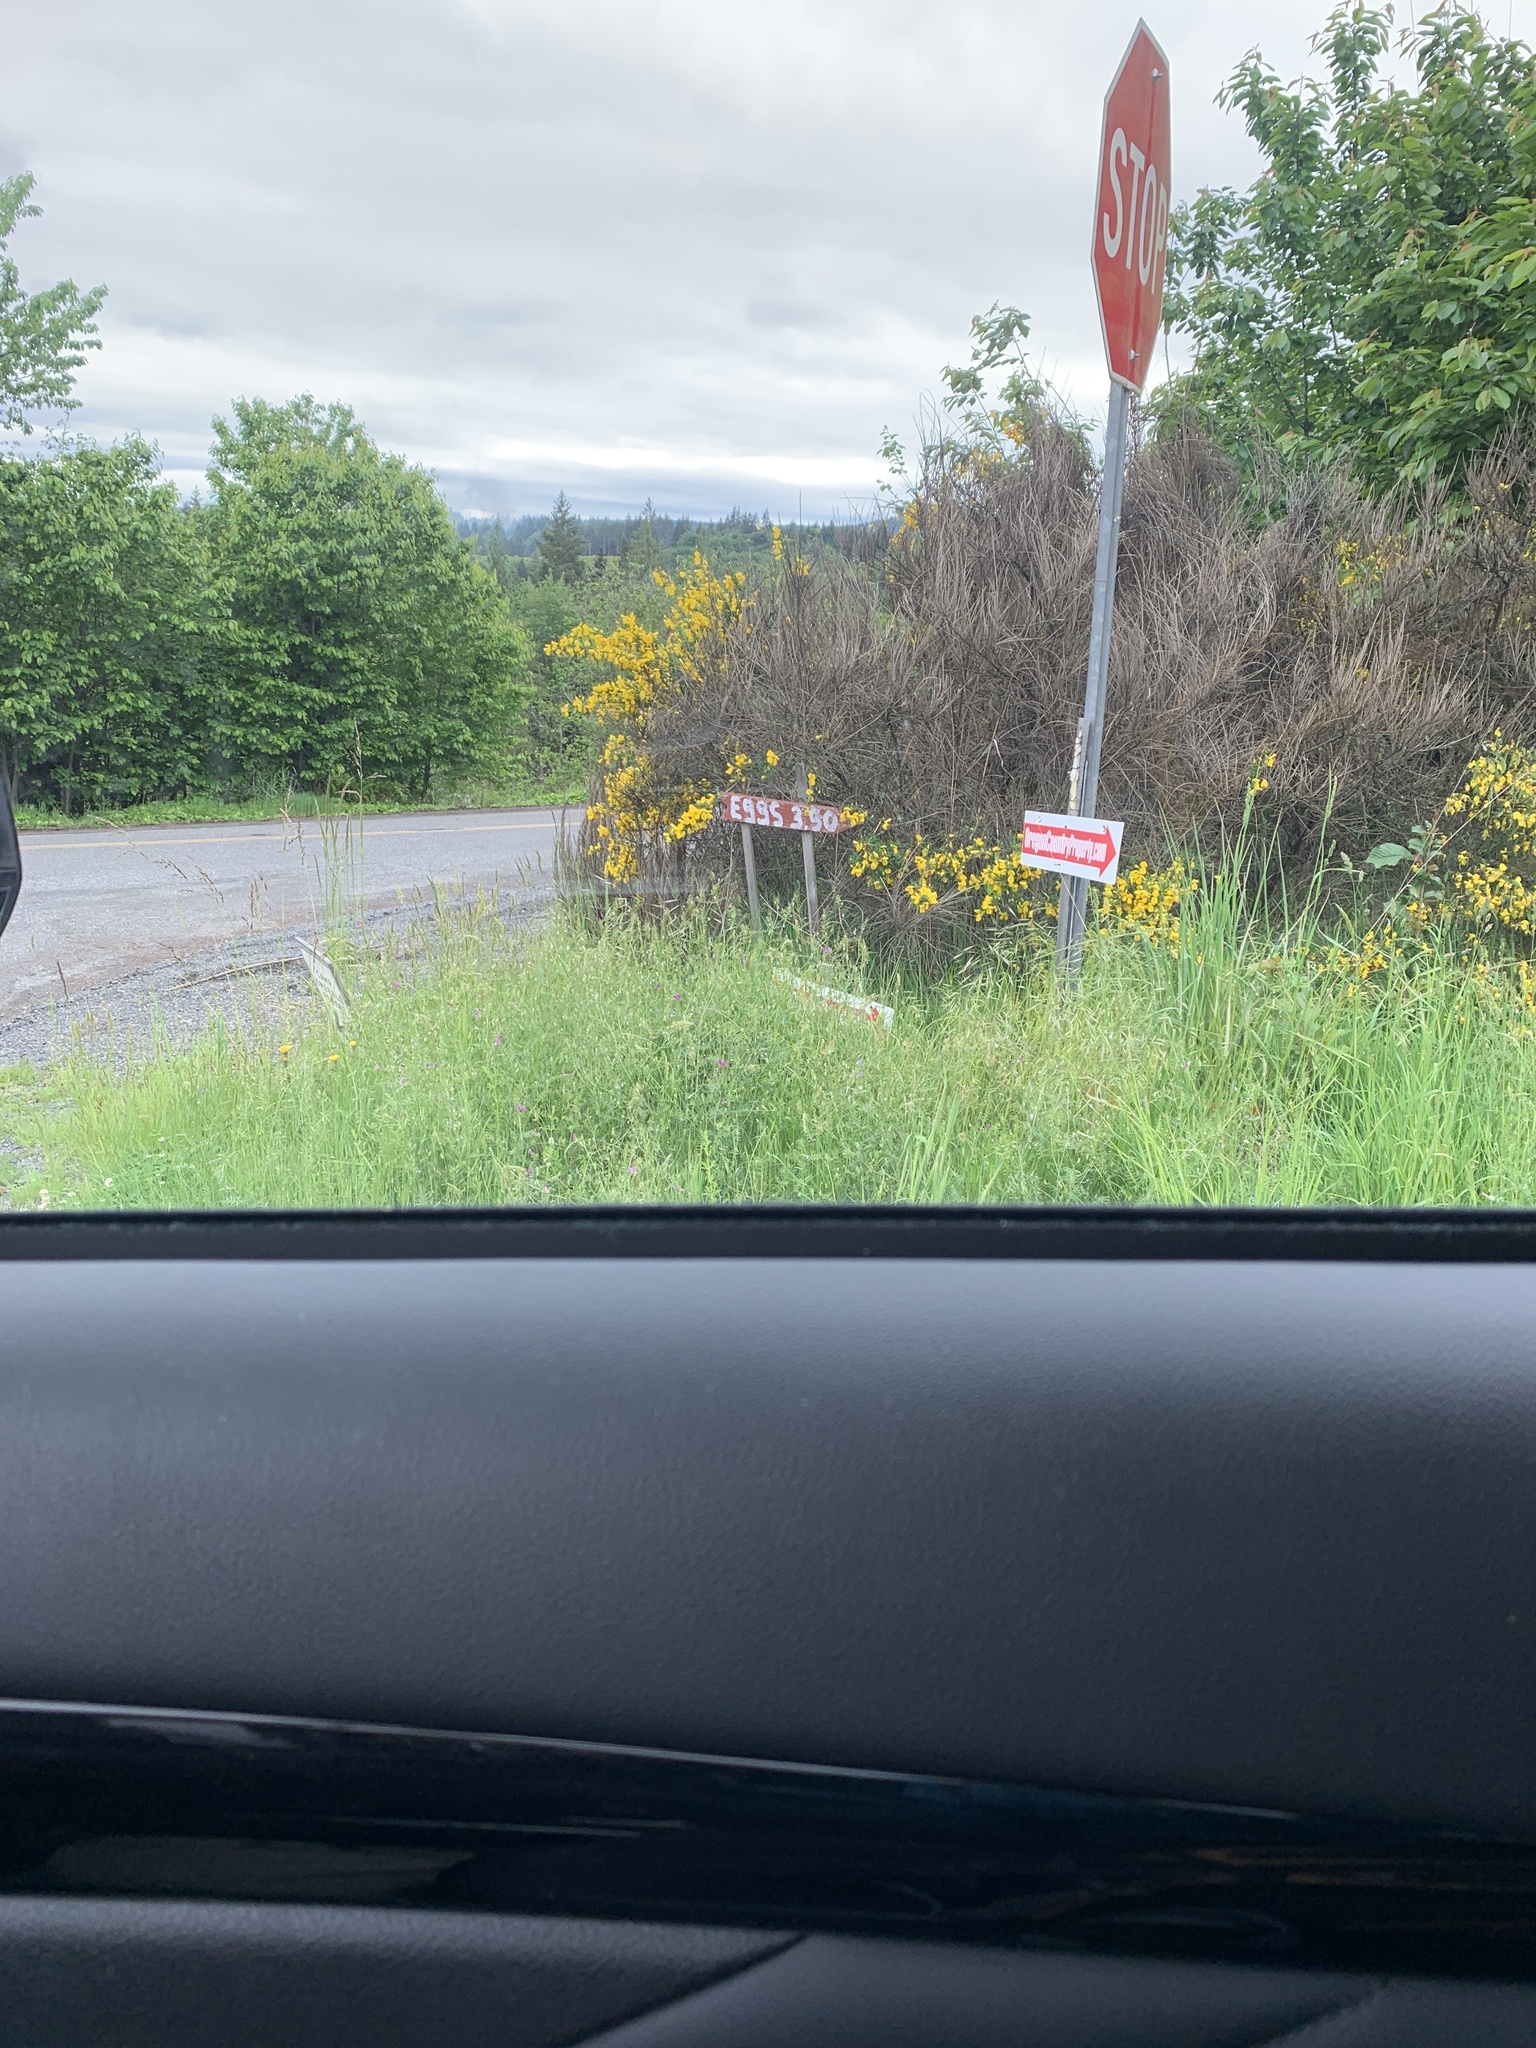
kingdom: Plantae
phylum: Tracheophyta
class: Magnoliopsida
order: Fabales
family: Fabaceae
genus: Cytisus
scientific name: Cytisus scoparius
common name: Scotch broom
